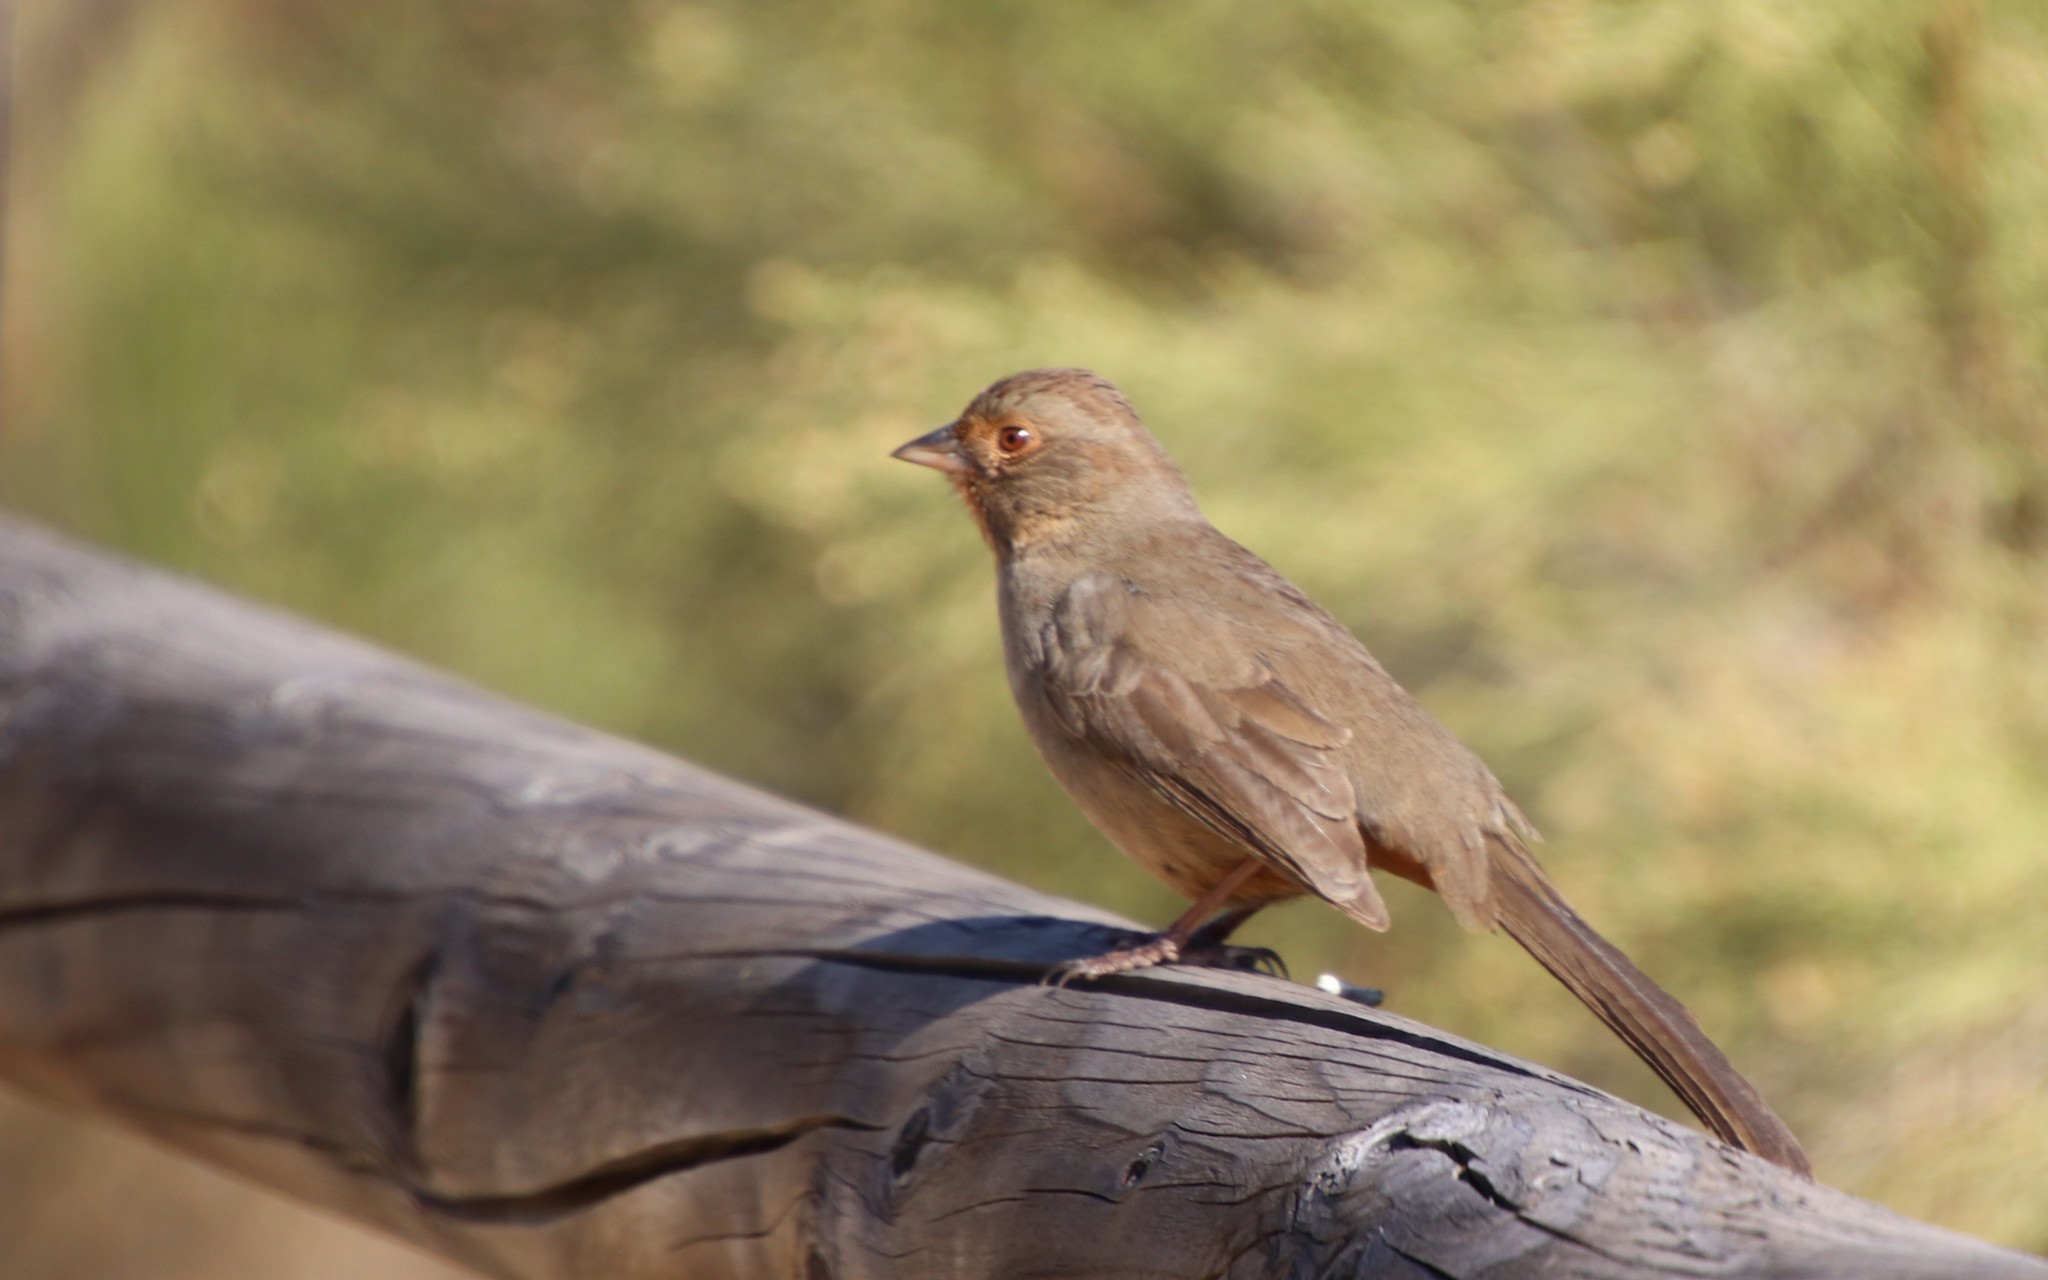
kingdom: Animalia
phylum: Chordata
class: Aves
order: Passeriformes
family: Passerellidae
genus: Melozone
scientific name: Melozone crissalis
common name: California towhee
